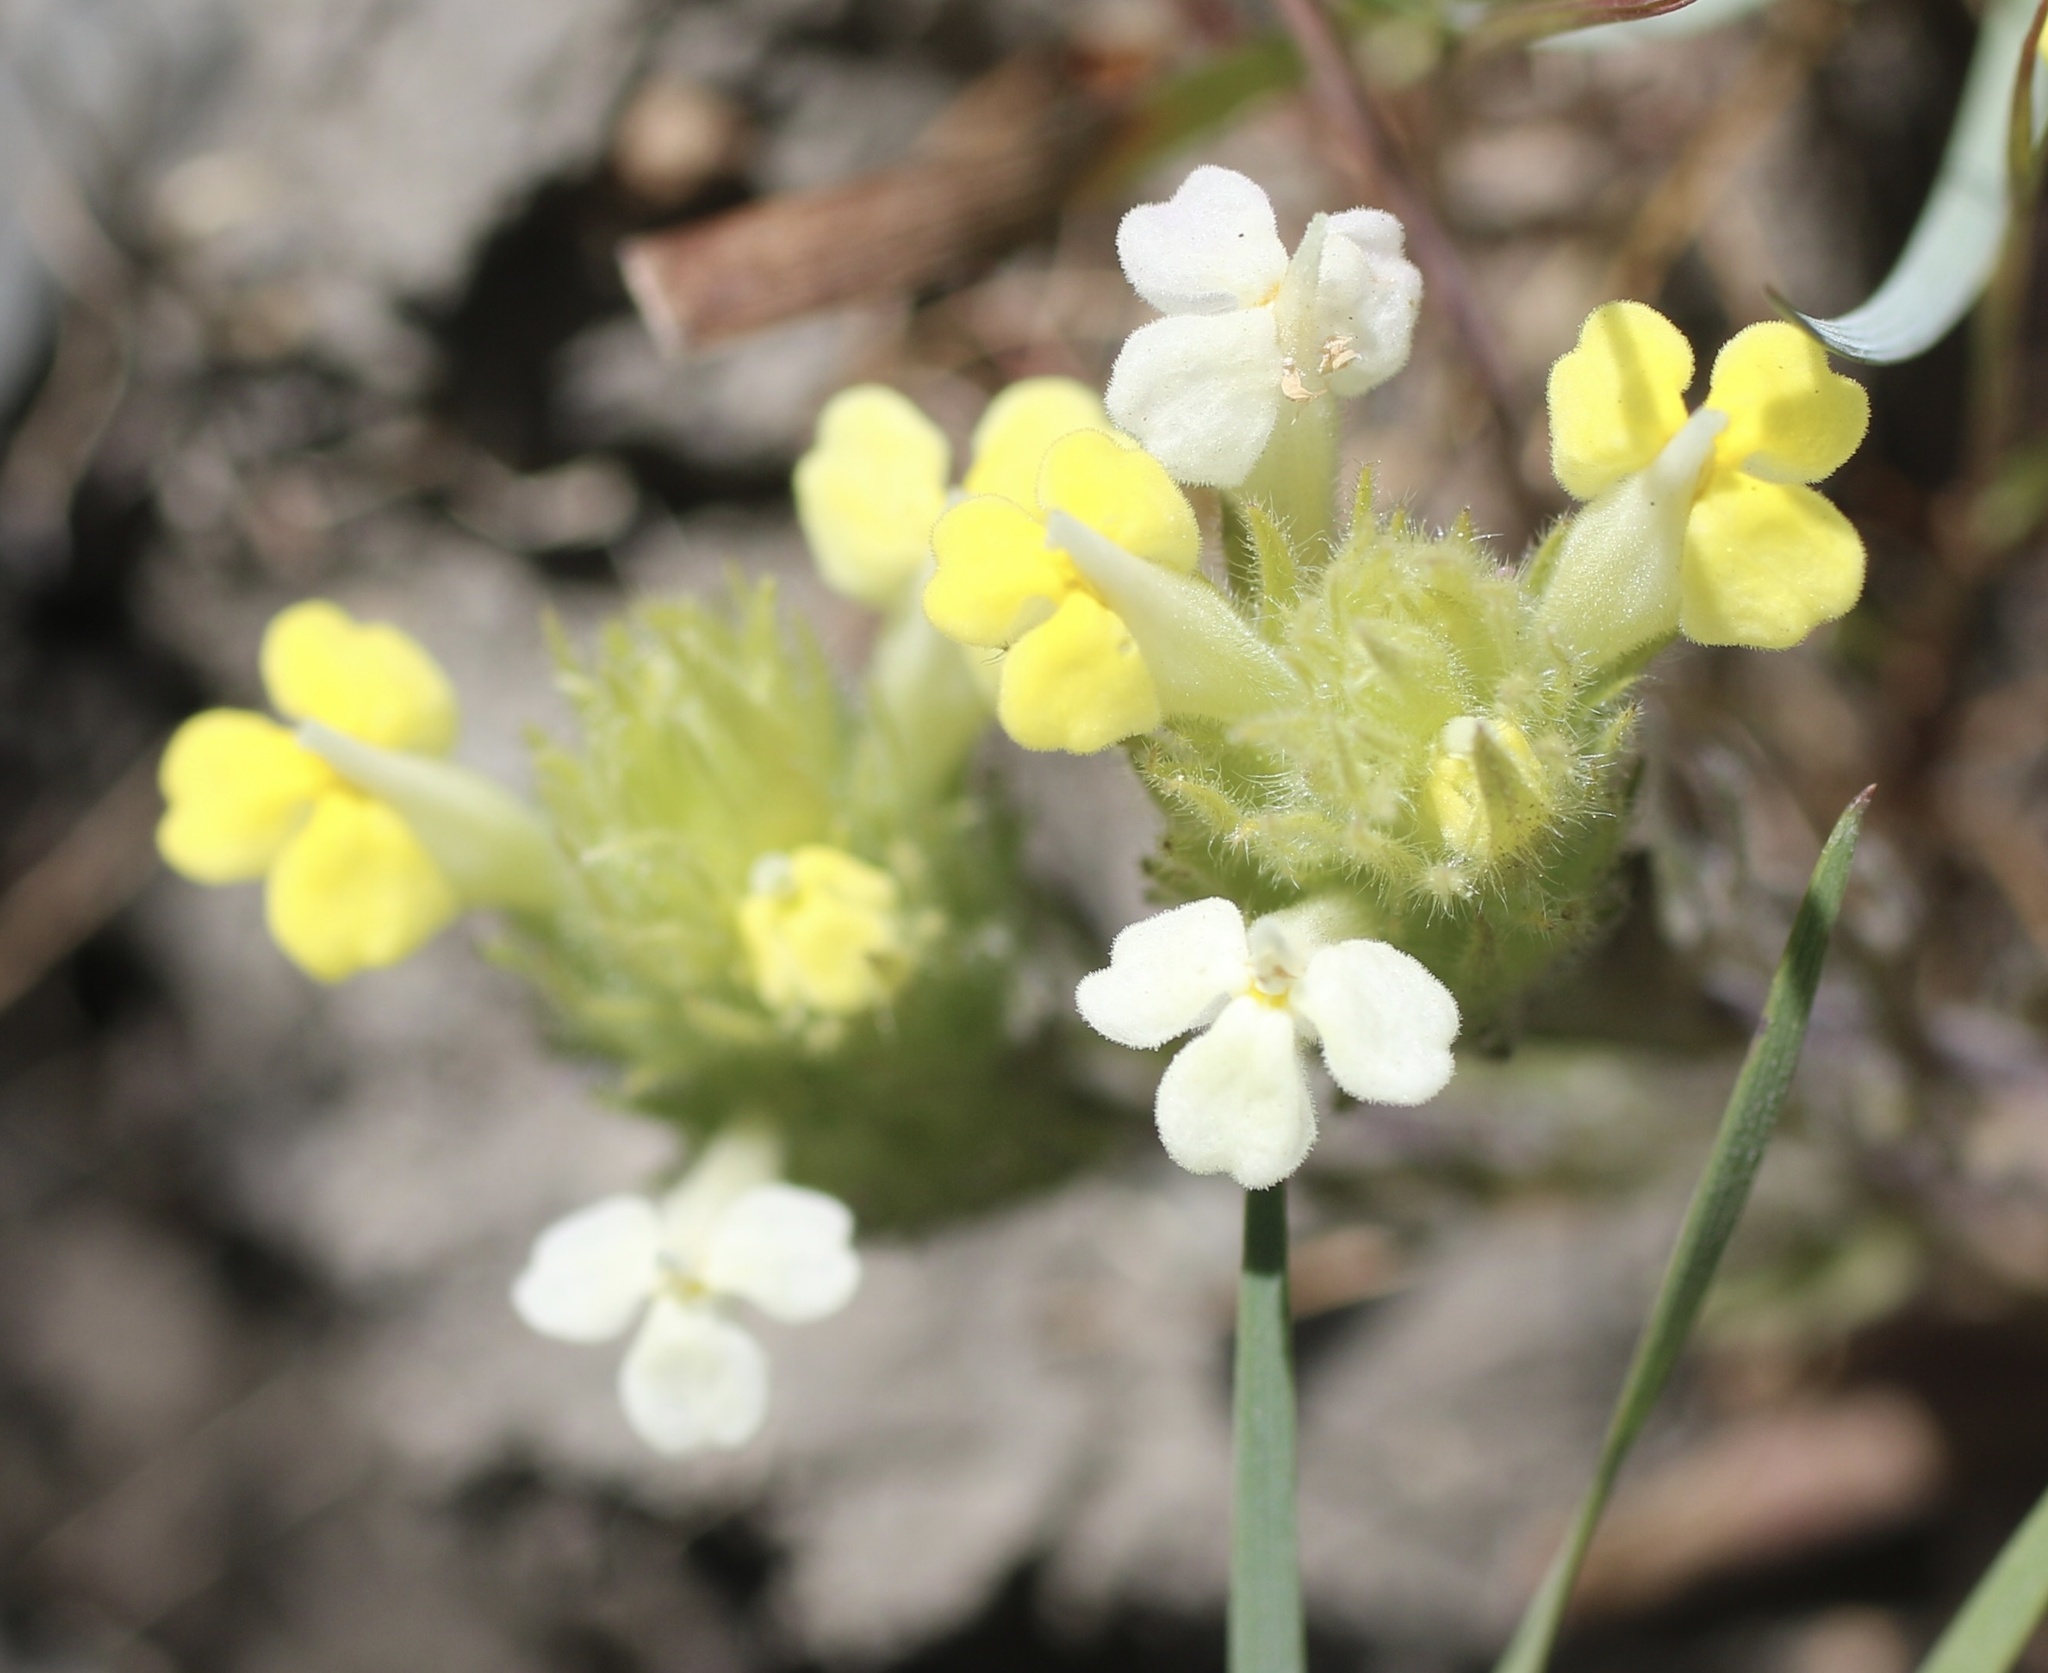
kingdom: Plantae
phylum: Tracheophyta
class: Magnoliopsida
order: Lamiales
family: Orobanchaceae
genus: Castilleja
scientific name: Castilleja rubicundula
